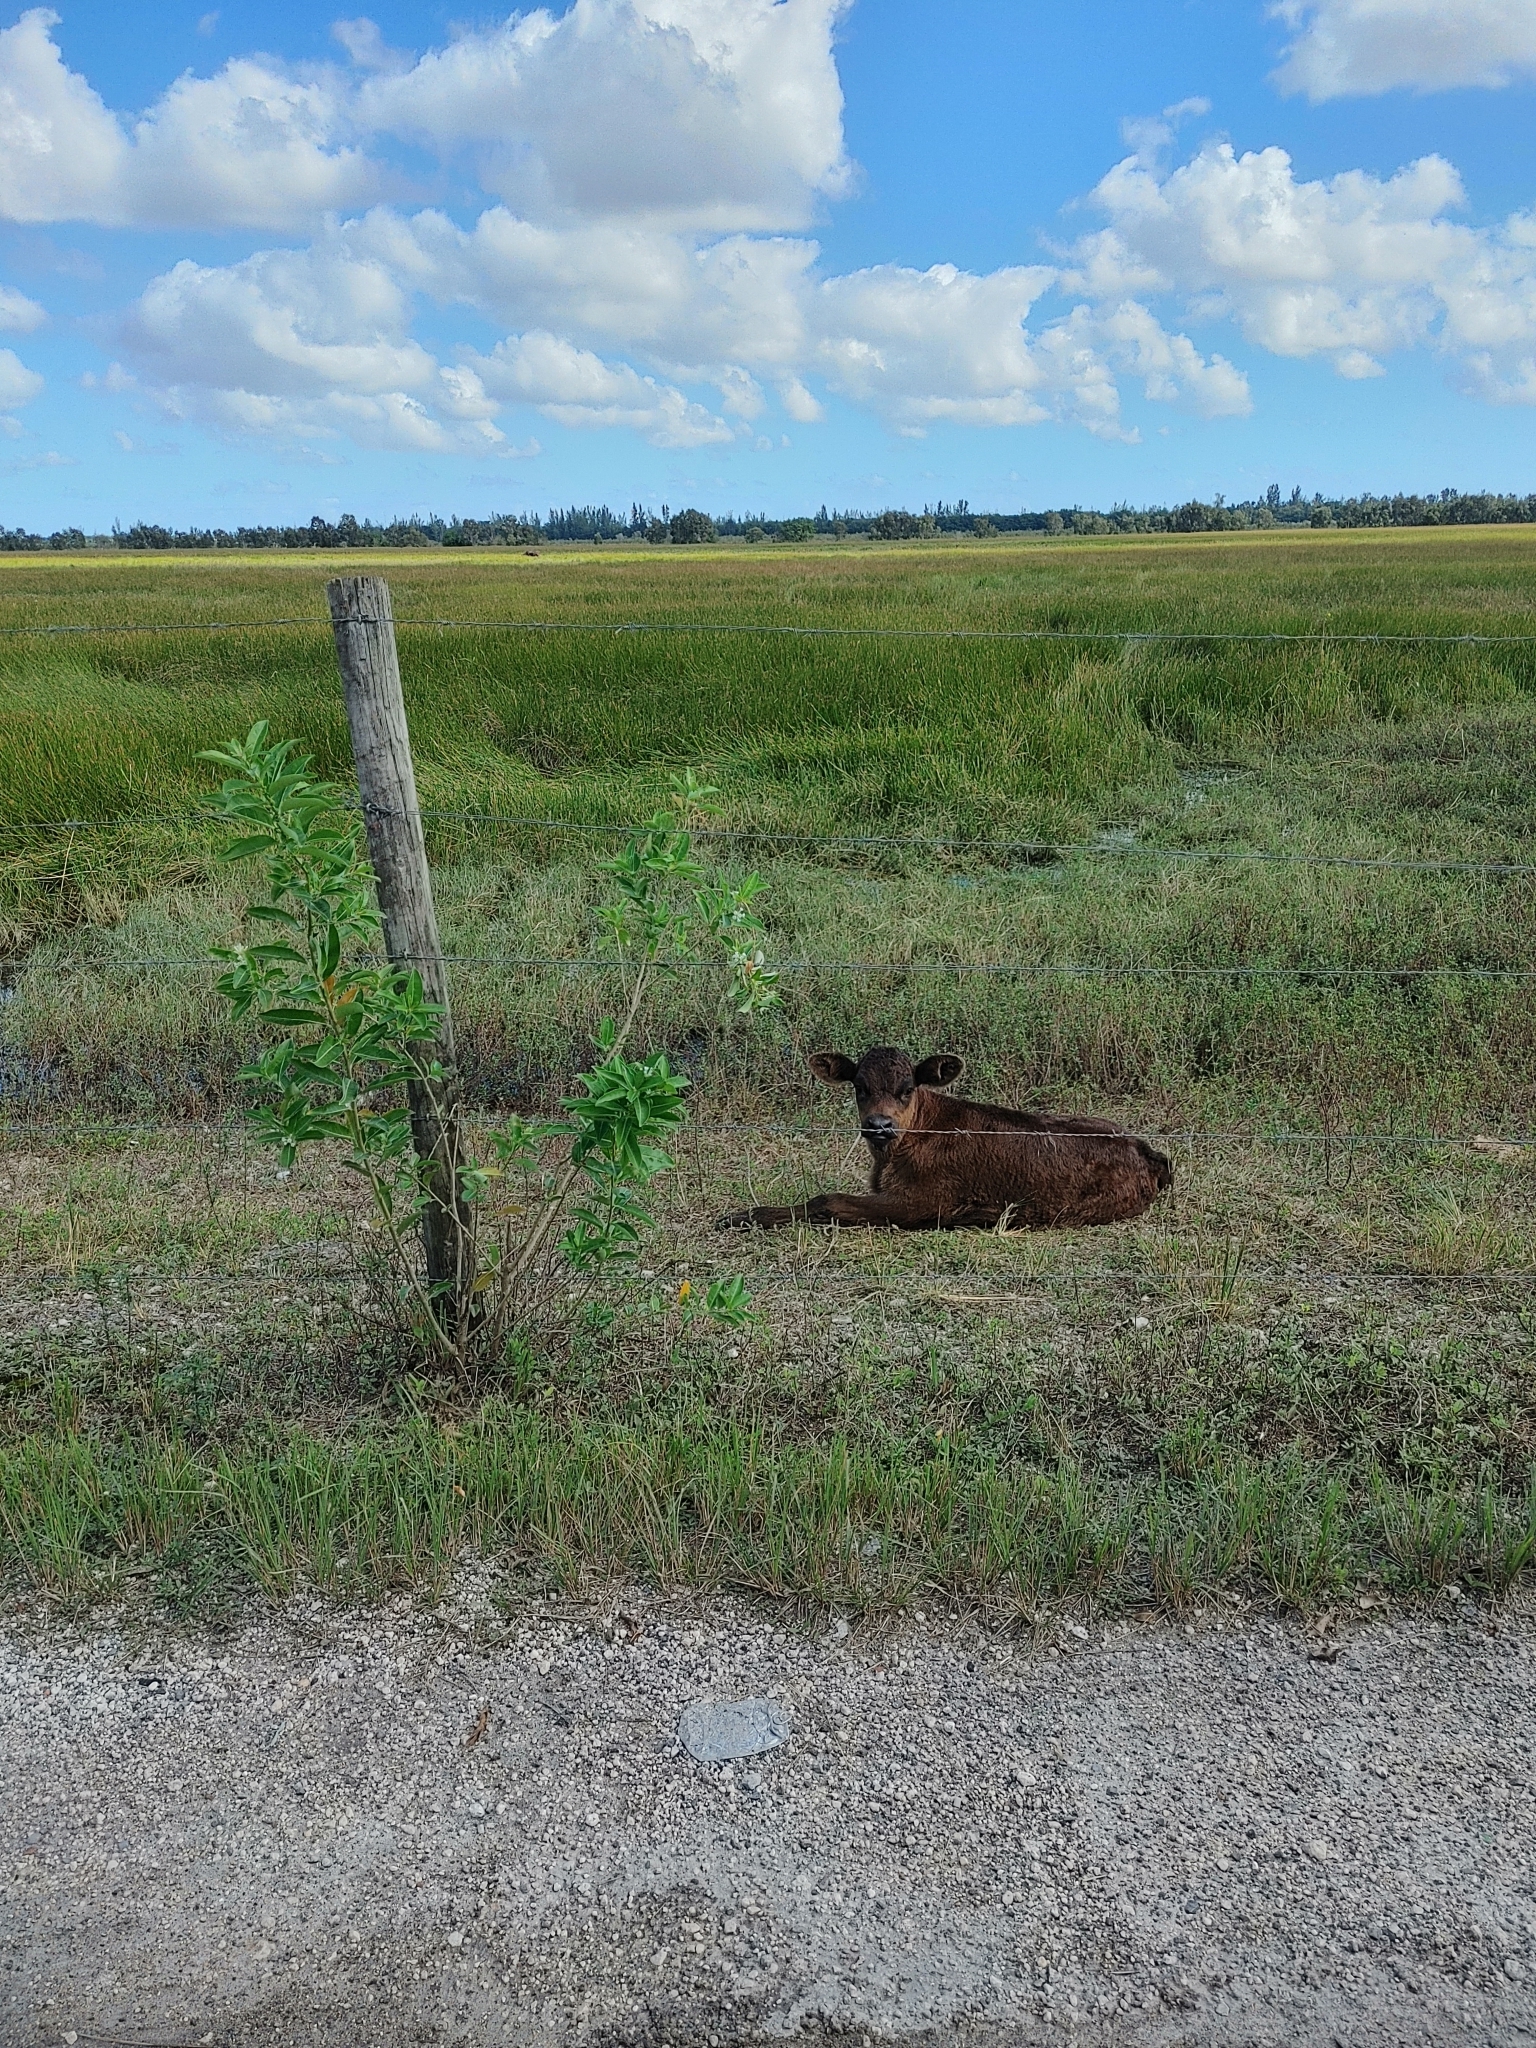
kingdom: Plantae
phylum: Tracheophyta
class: Magnoliopsida
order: Solanales
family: Solanaceae
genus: Cestrum
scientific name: Cestrum diurnum
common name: Day jessamine
